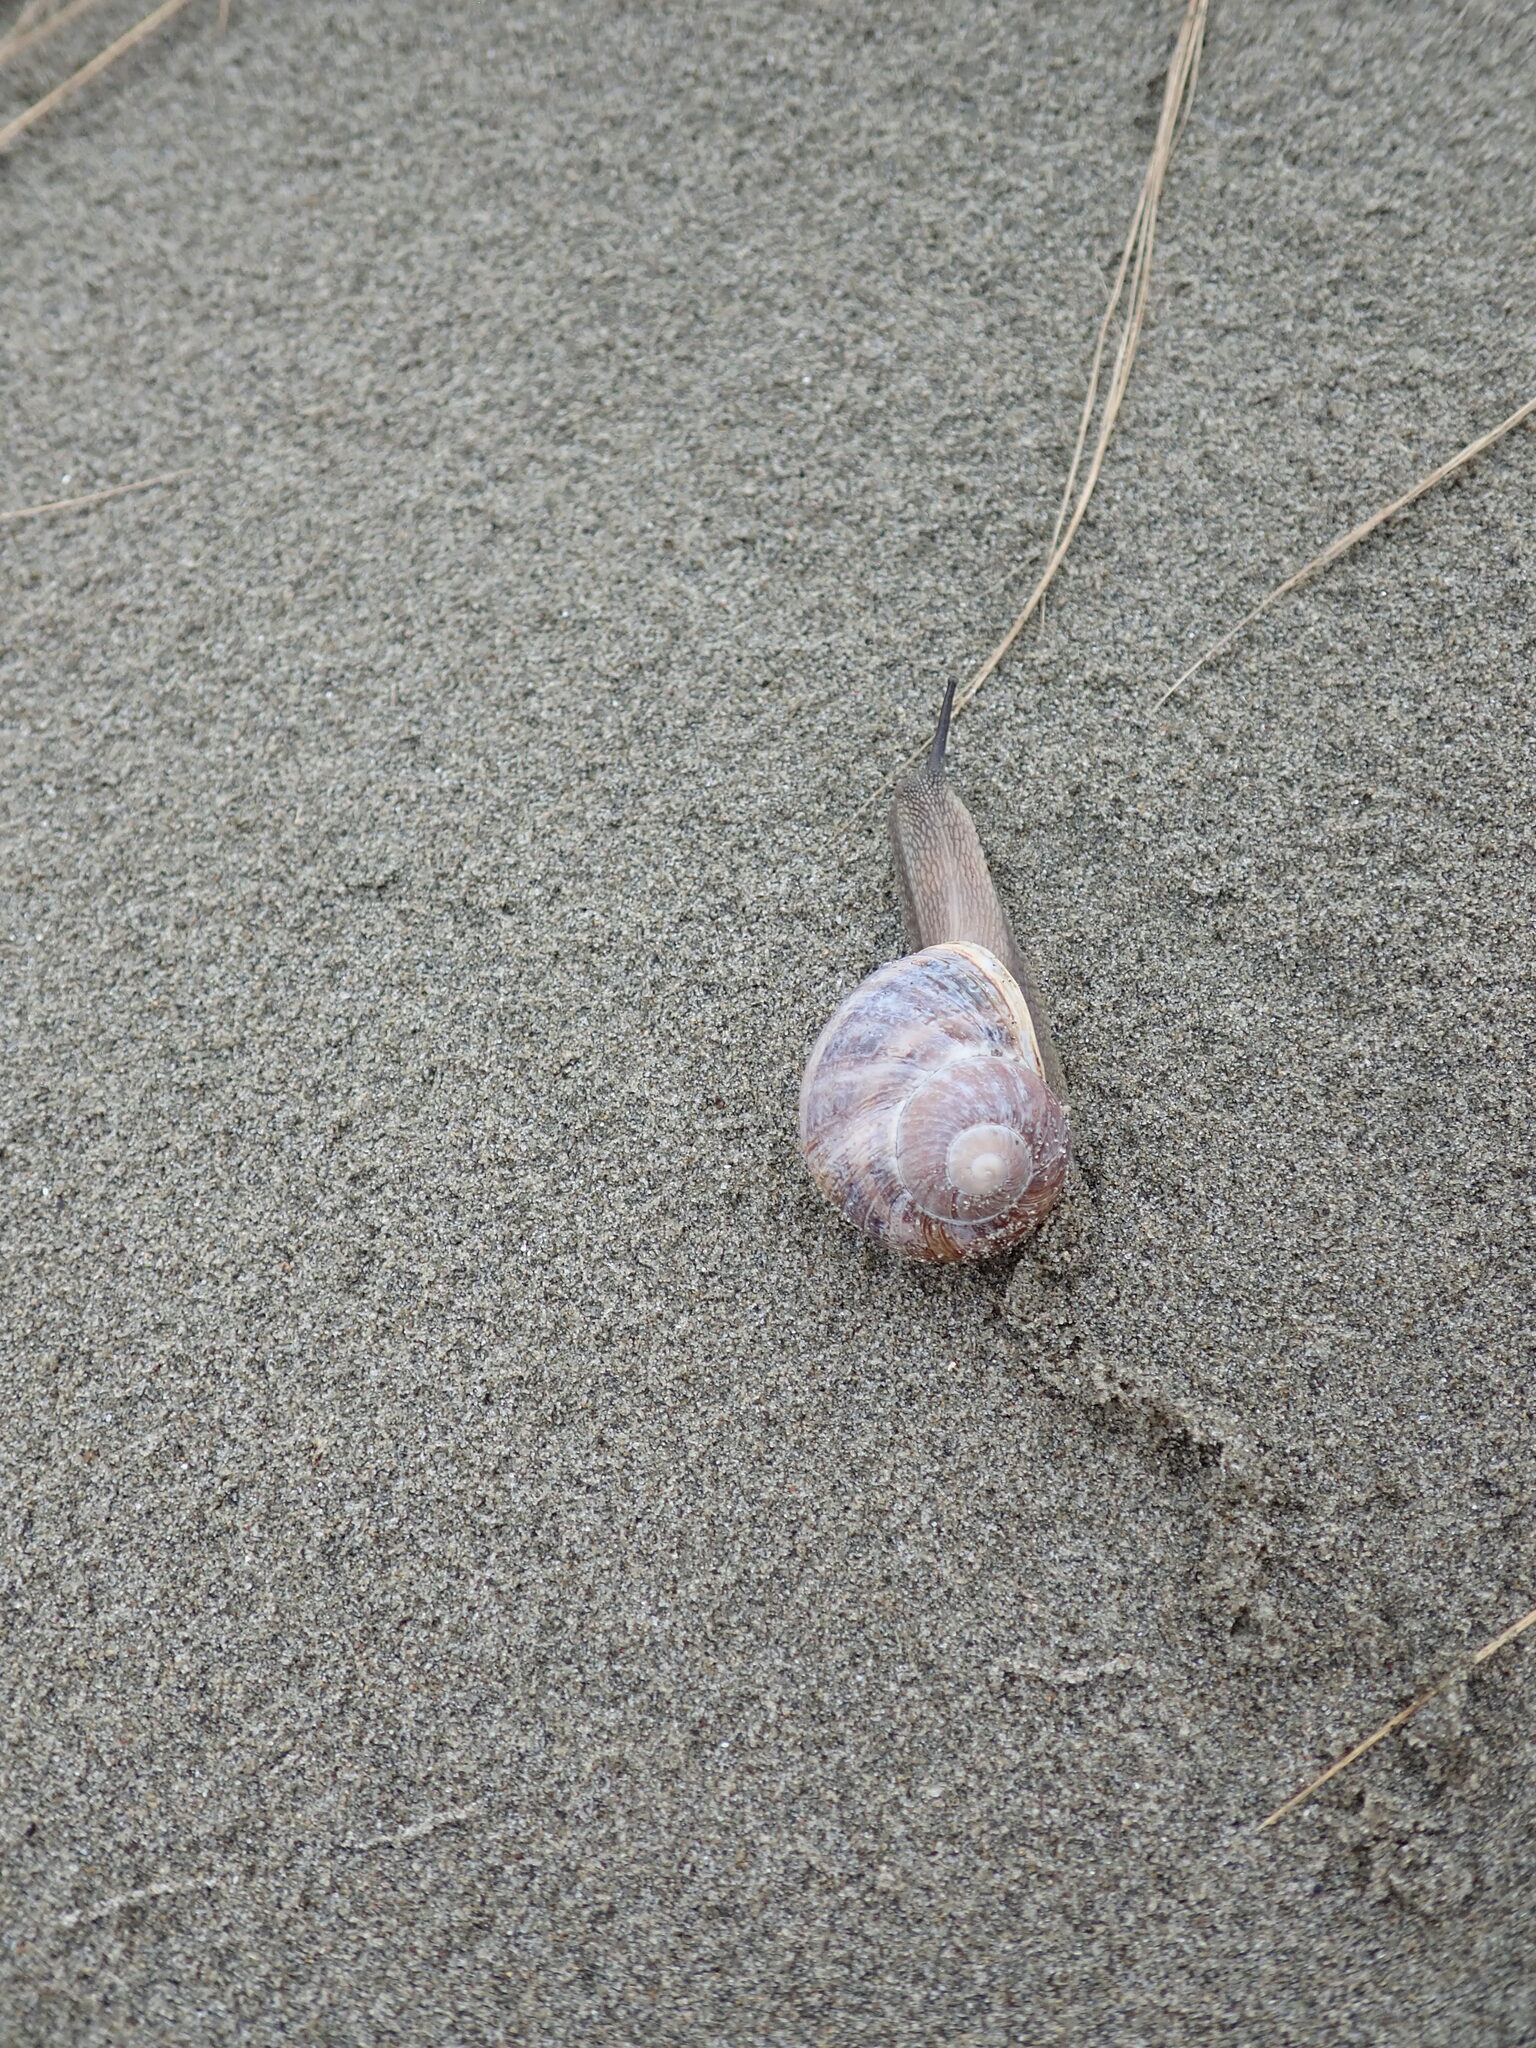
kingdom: Animalia
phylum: Mollusca
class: Gastropoda
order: Stylommatophora
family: Helicidae
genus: Cornu
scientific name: Cornu aspersum
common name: Brown garden snail
